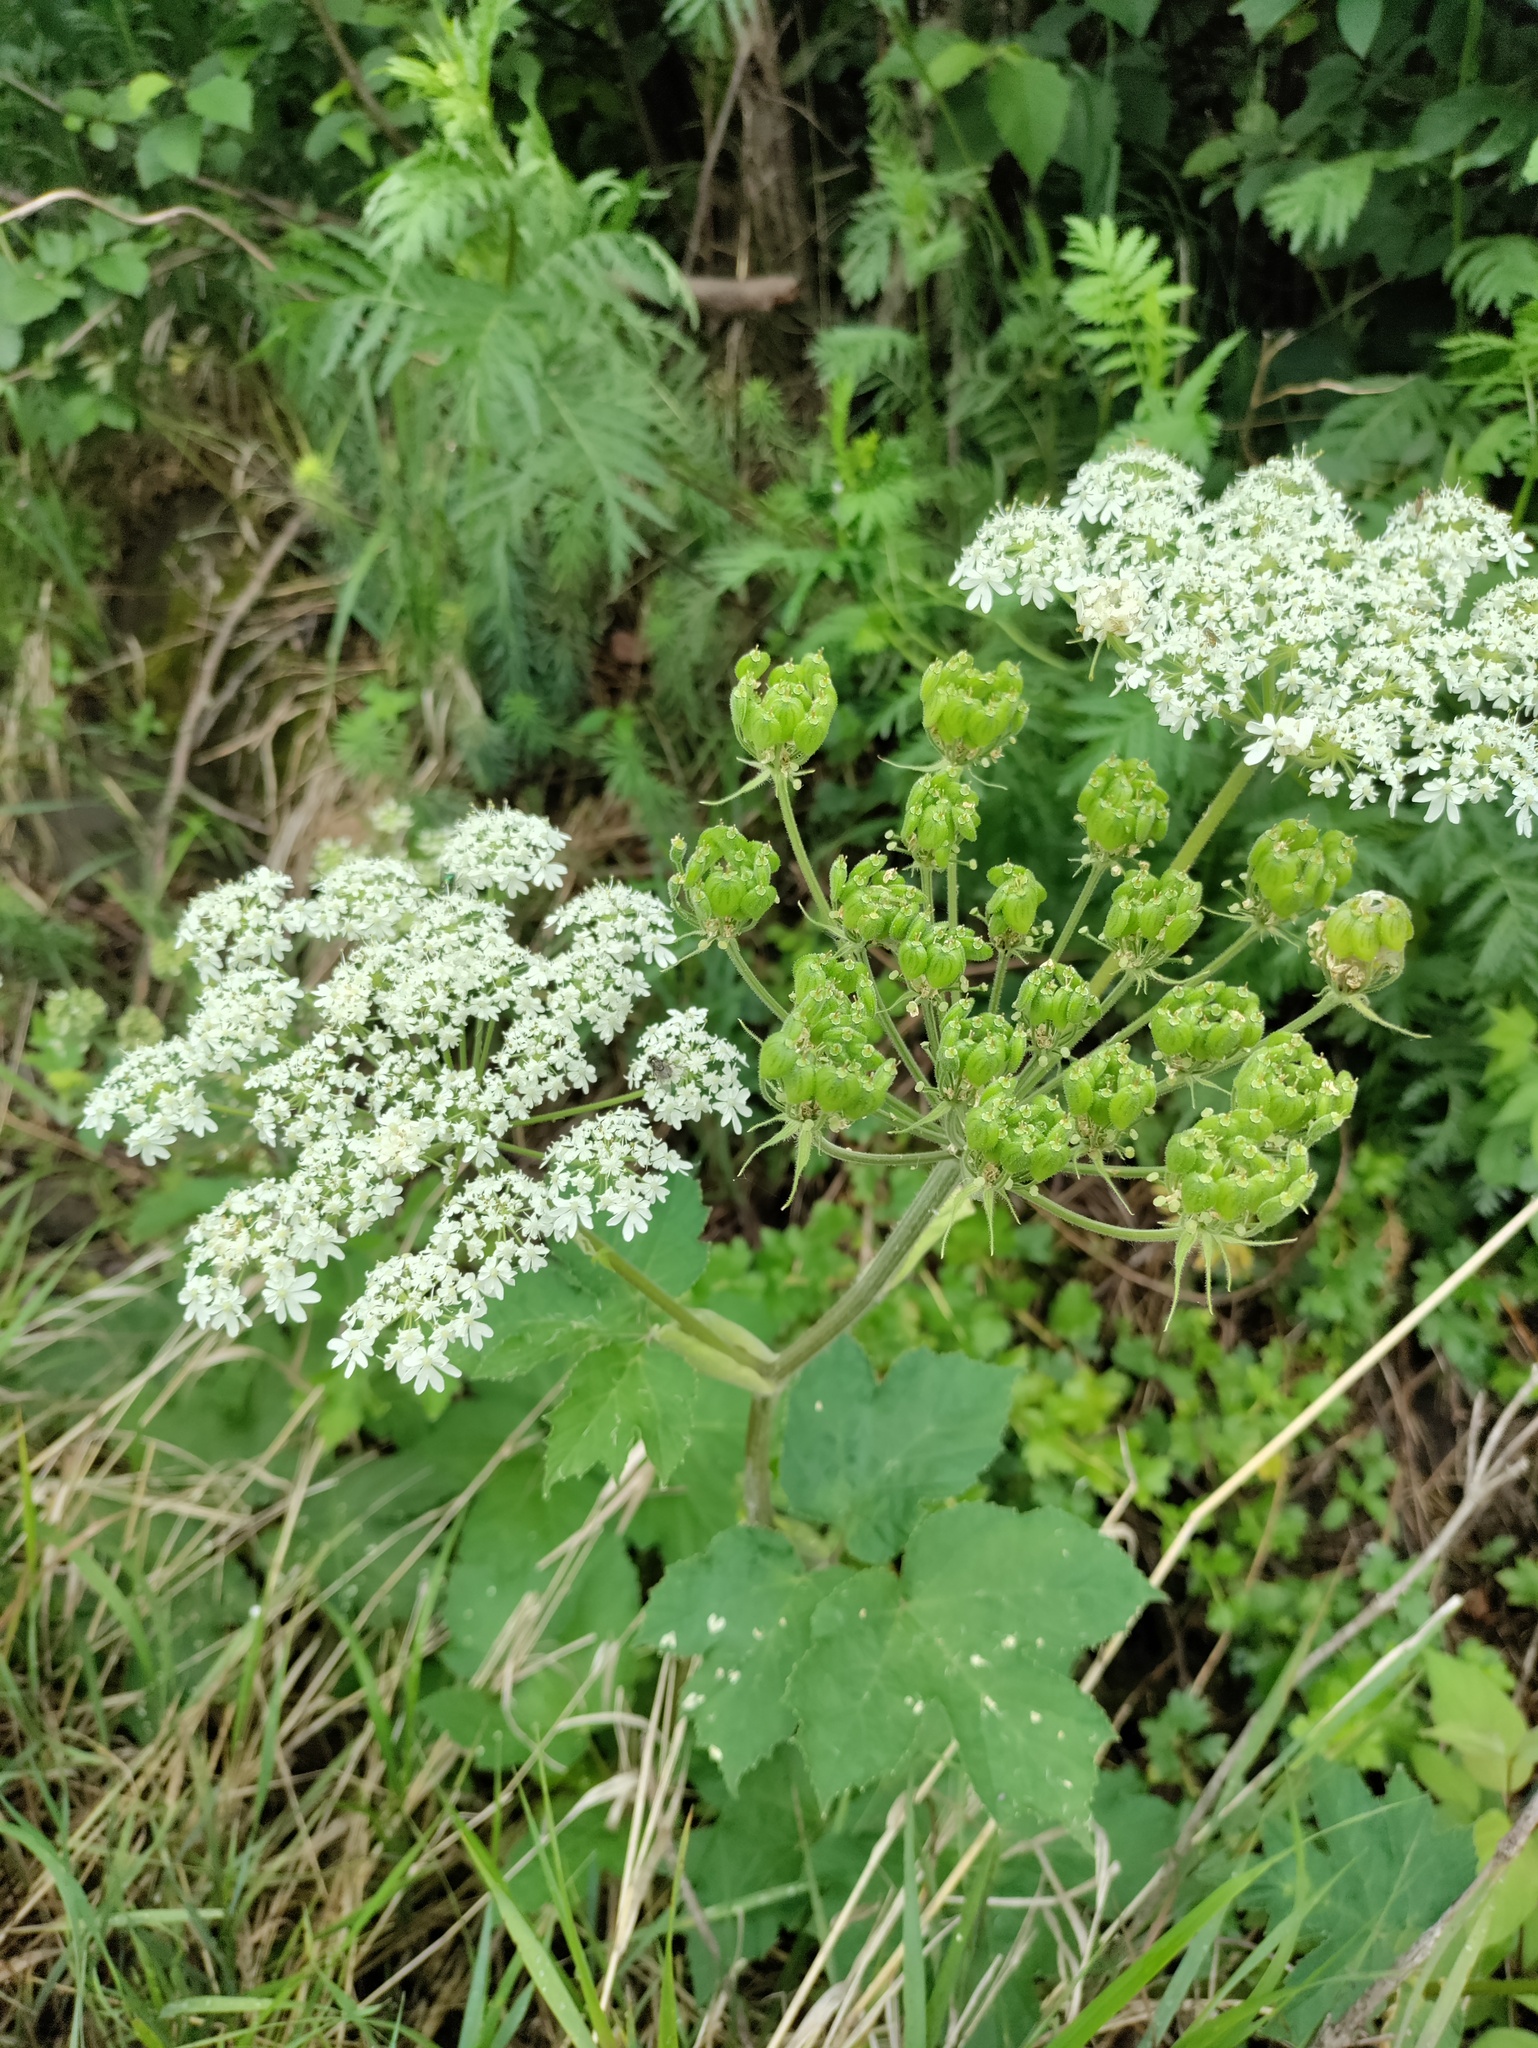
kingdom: Plantae
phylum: Tracheophyta
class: Magnoliopsida
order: Apiales
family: Apiaceae
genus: Heracleum
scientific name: Heracleum maximum
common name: American cow parsnip
